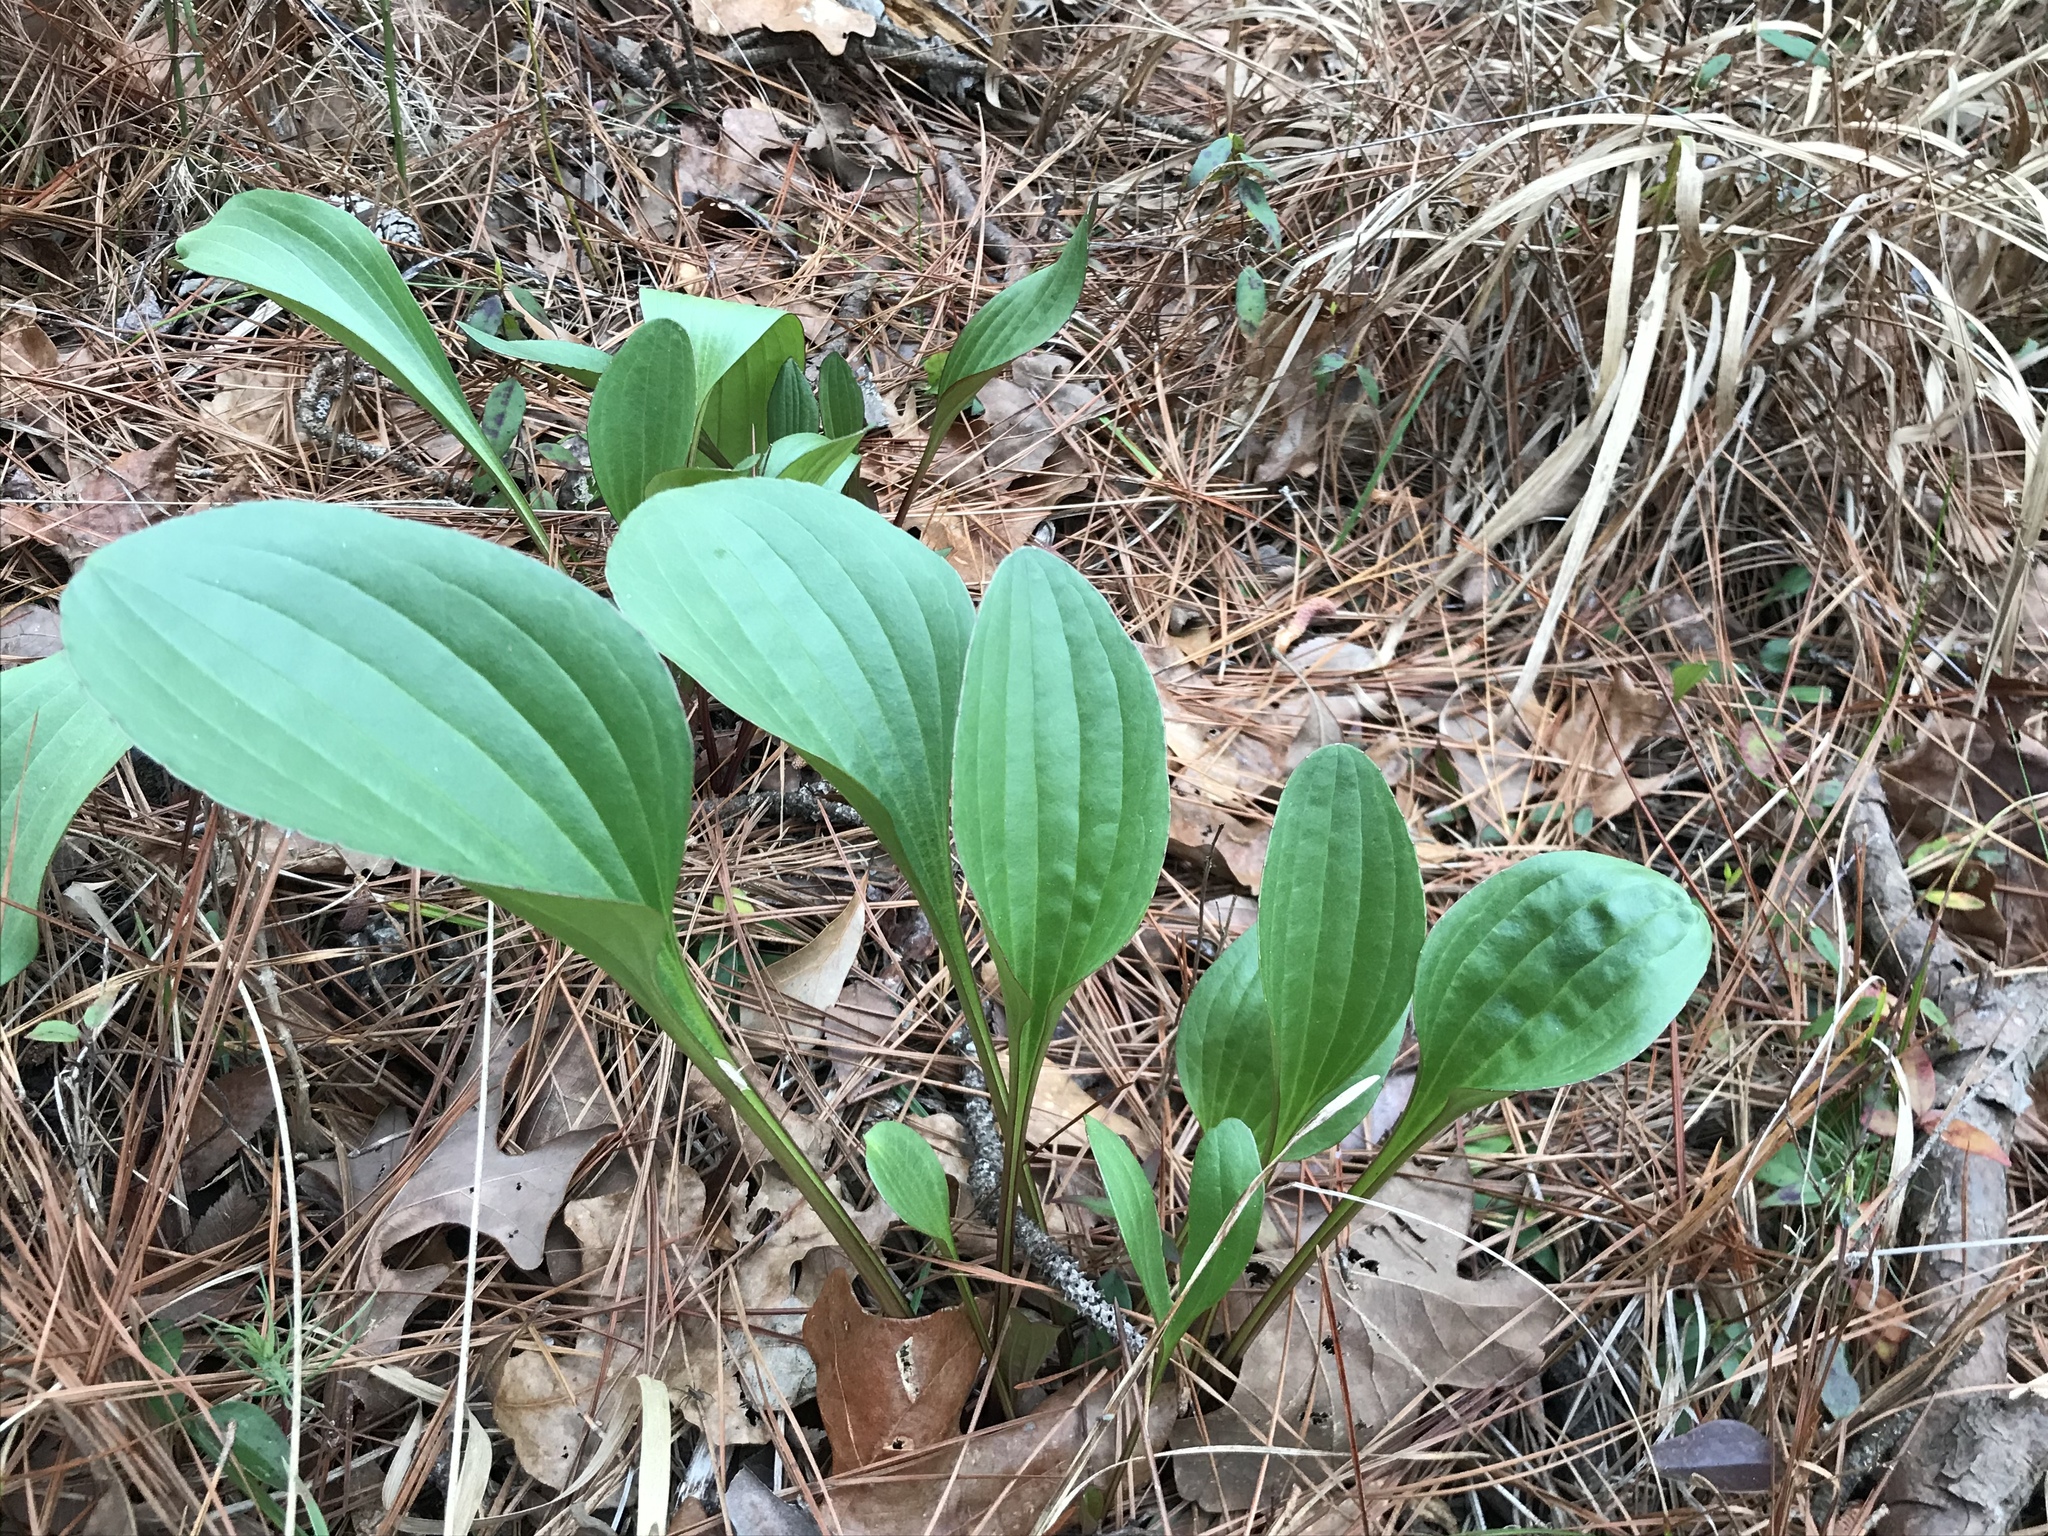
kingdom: Plantae
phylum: Tracheophyta
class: Magnoliopsida
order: Asterales
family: Asteraceae
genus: Arnoglossum
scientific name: Arnoglossum plantagineum
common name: Groove-stemmed indian-plantain
